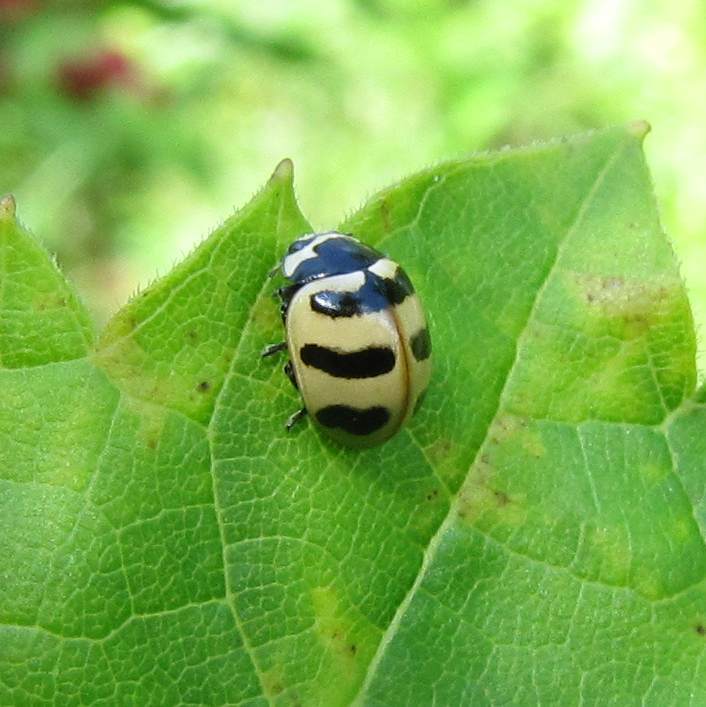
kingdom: Animalia
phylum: Arthropoda
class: Insecta
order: Coleoptera
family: Coccinellidae
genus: Coccinella
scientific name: Coccinella trifasciata
